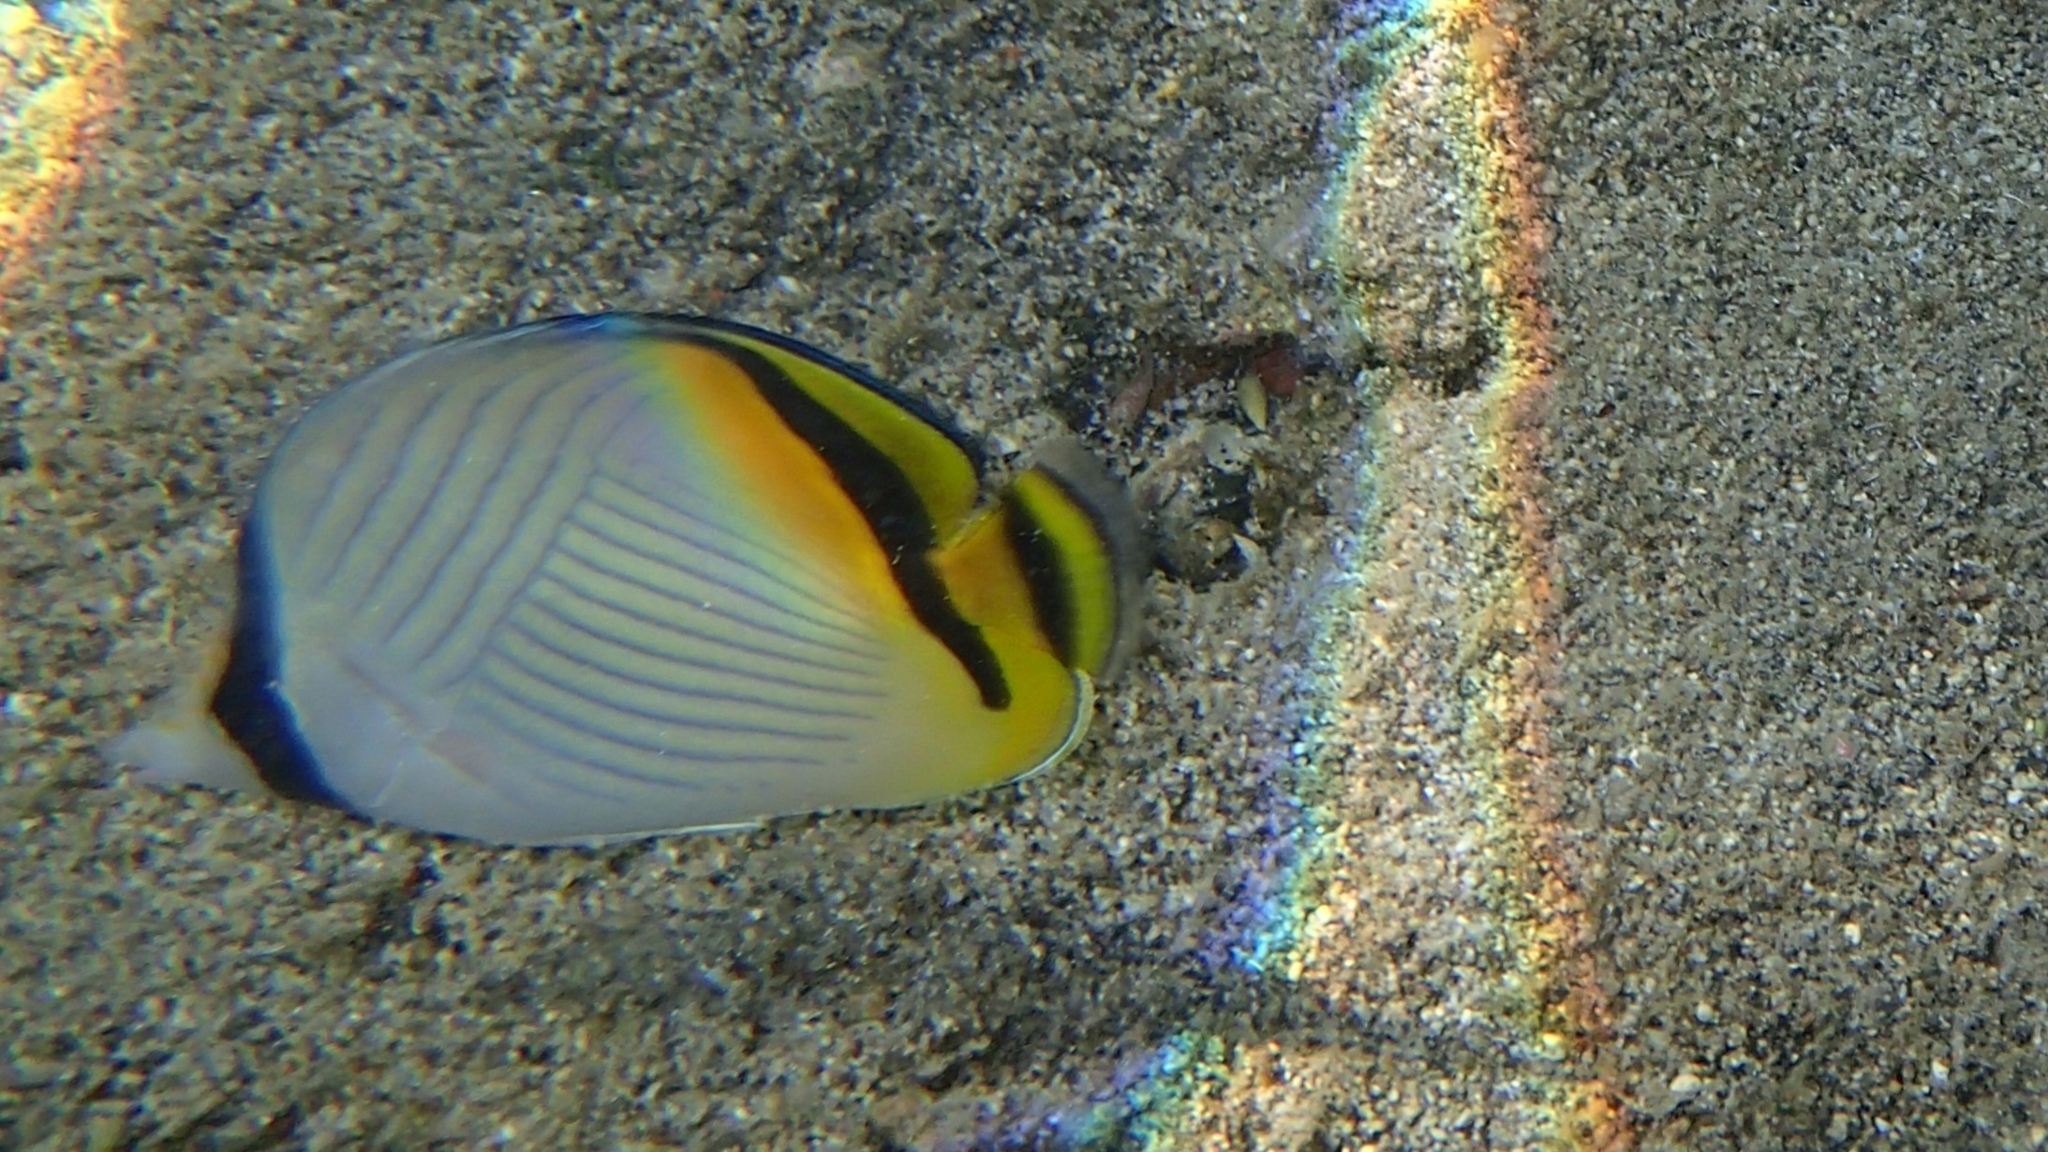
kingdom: Animalia
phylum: Chordata
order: Perciformes
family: Chaetodontidae
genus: Chaetodon
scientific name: Chaetodon vagabundus
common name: Vagabond butterflyfish
